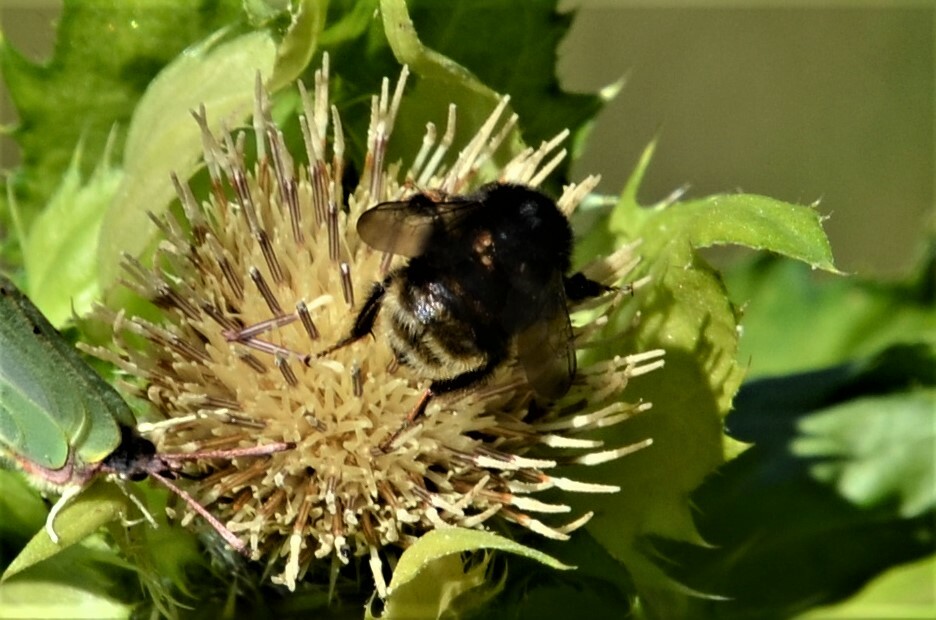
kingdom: Animalia
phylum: Arthropoda
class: Insecta
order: Hymenoptera
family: Apidae
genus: Bombus
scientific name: Bombus humilis
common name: Brown-banded carder-bee
